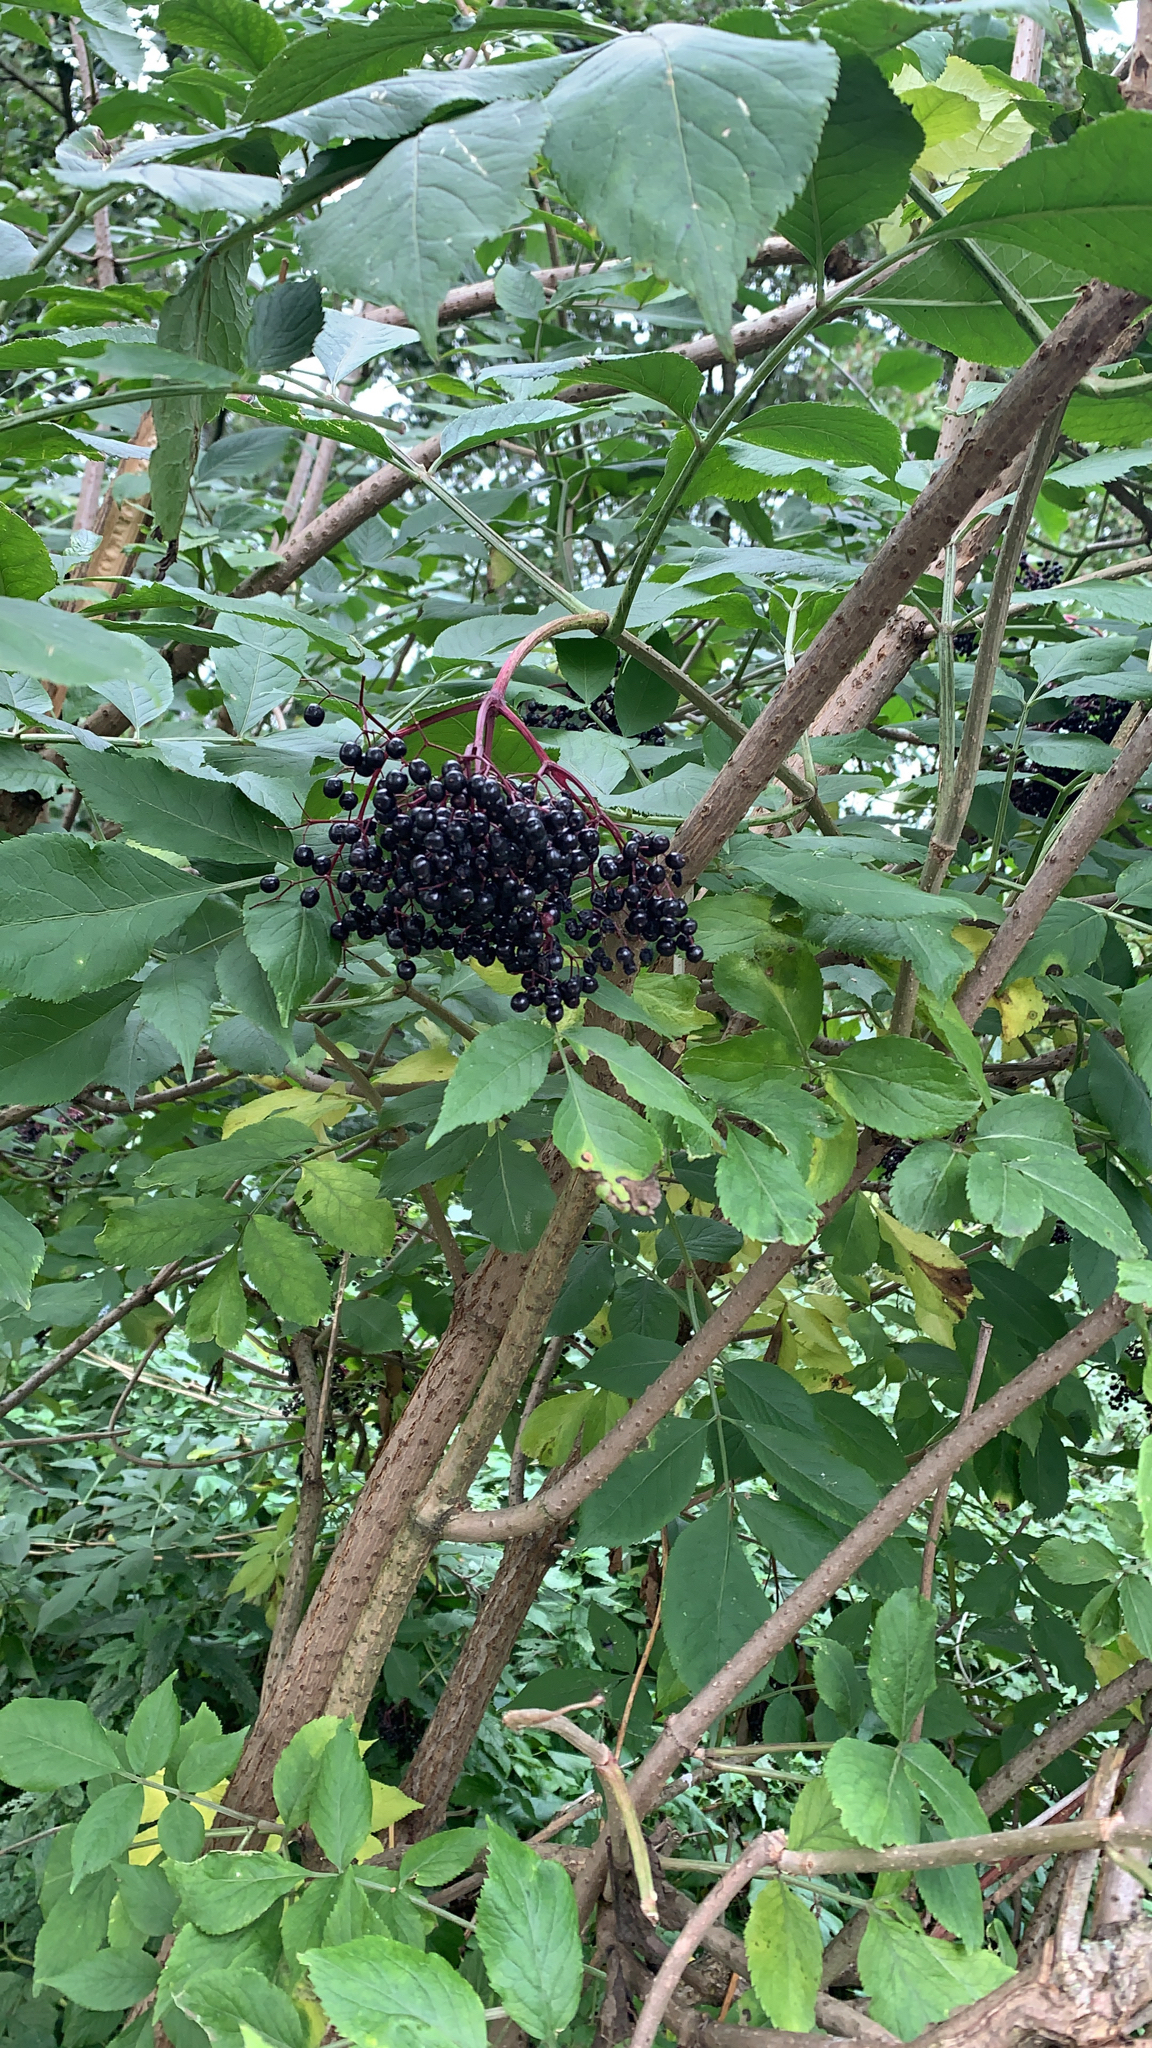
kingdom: Plantae
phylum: Tracheophyta
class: Magnoliopsida
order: Dipsacales
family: Viburnaceae
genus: Sambucus
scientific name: Sambucus nigra
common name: Elder
